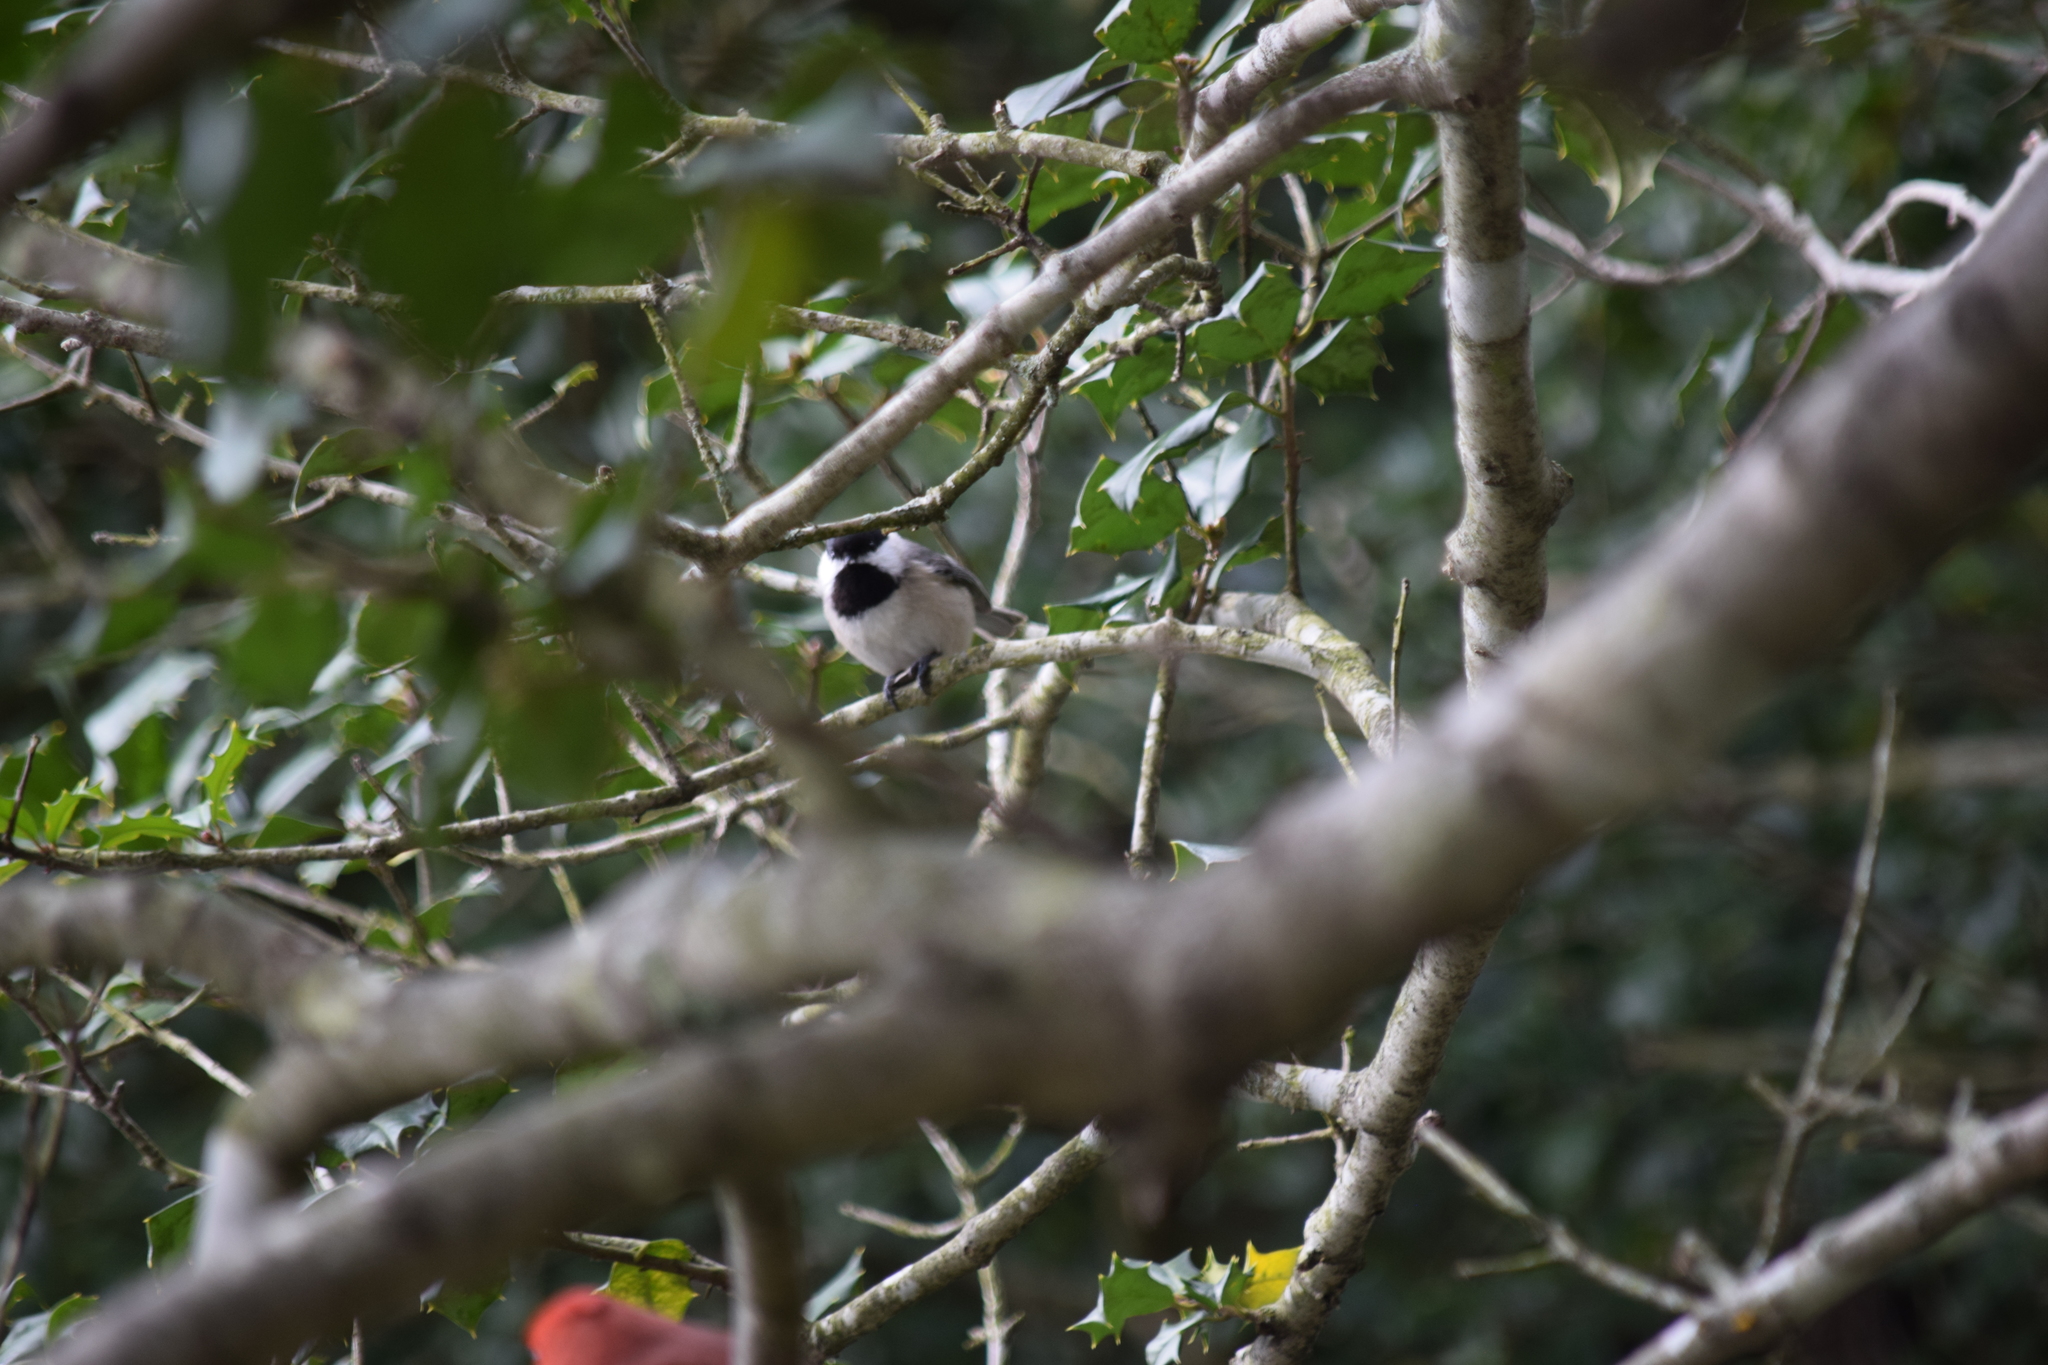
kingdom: Animalia
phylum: Chordata
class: Aves
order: Passeriformes
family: Paridae
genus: Poecile
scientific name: Poecile carolinensis
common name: Carolina chickadee
